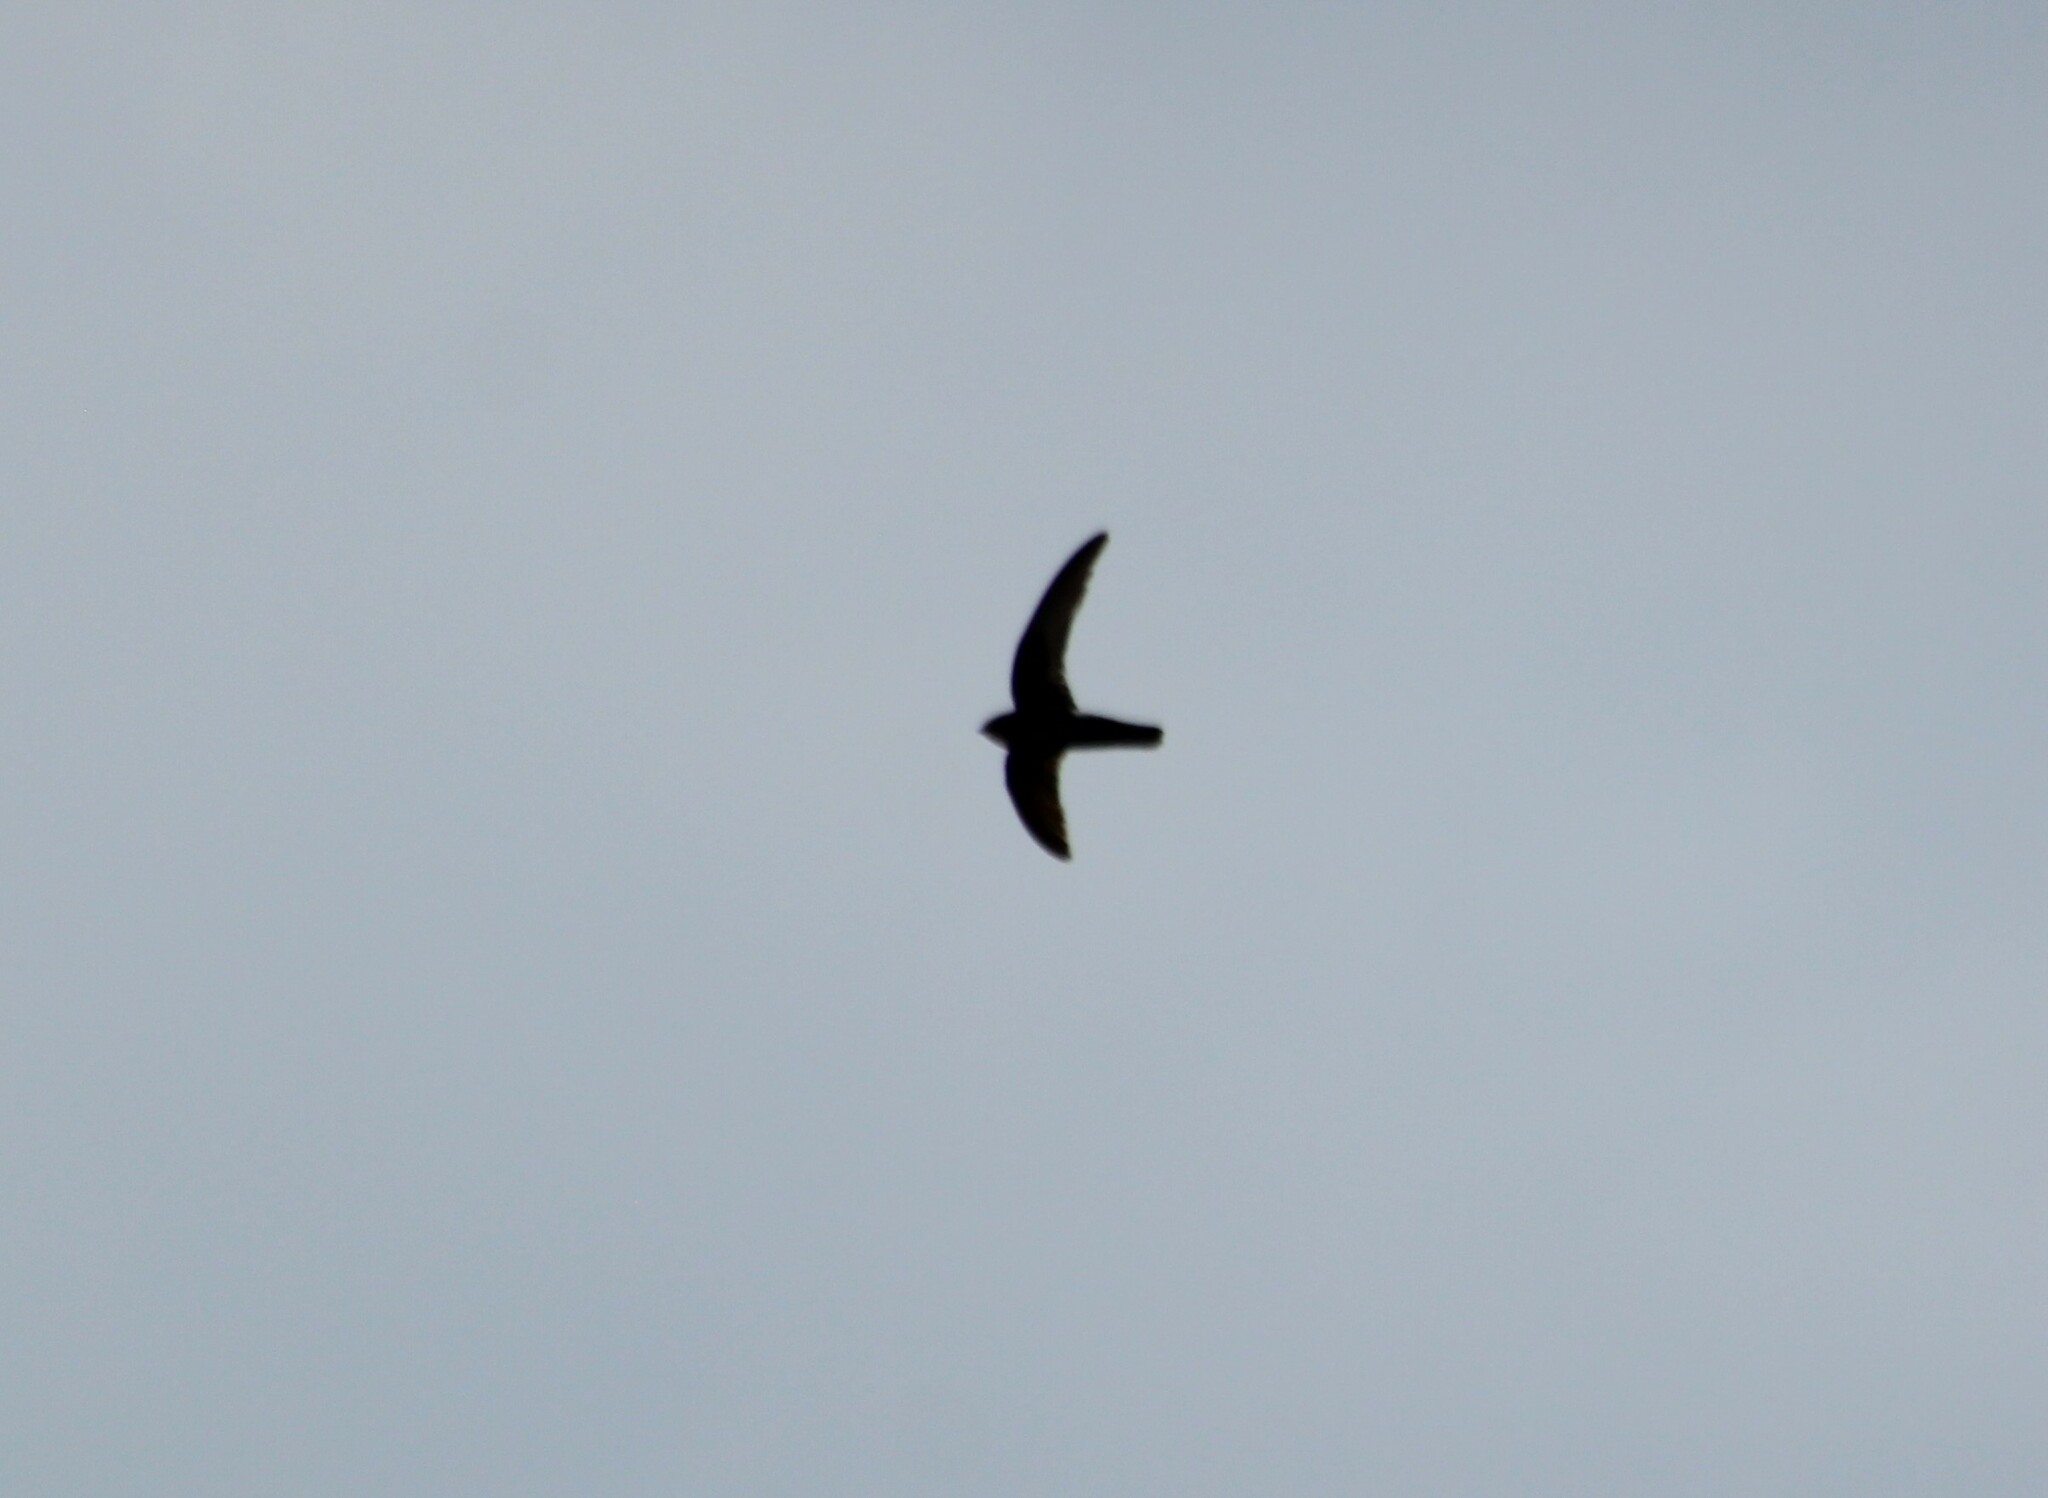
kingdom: Animalia
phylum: Chordata
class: Aves
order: Apodiformes
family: Apodidae
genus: Apus
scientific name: Apus affinis
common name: Little swift
